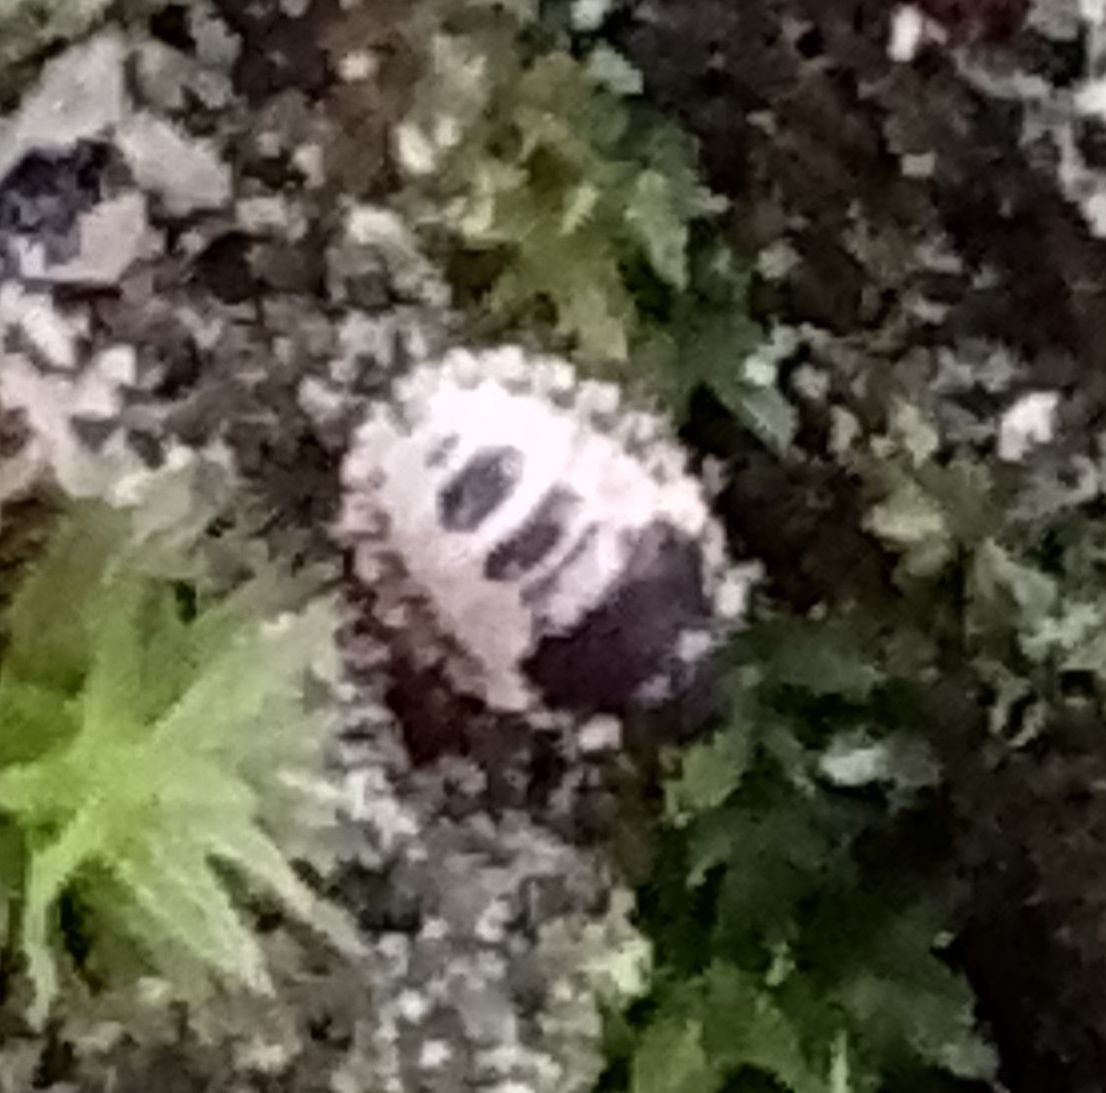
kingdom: Animalia
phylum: Arthropoda
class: Insecta
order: Hemiptera
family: Pentatomidae
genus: Pentatoma
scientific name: Pentatoma rufipes
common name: Forest bug
